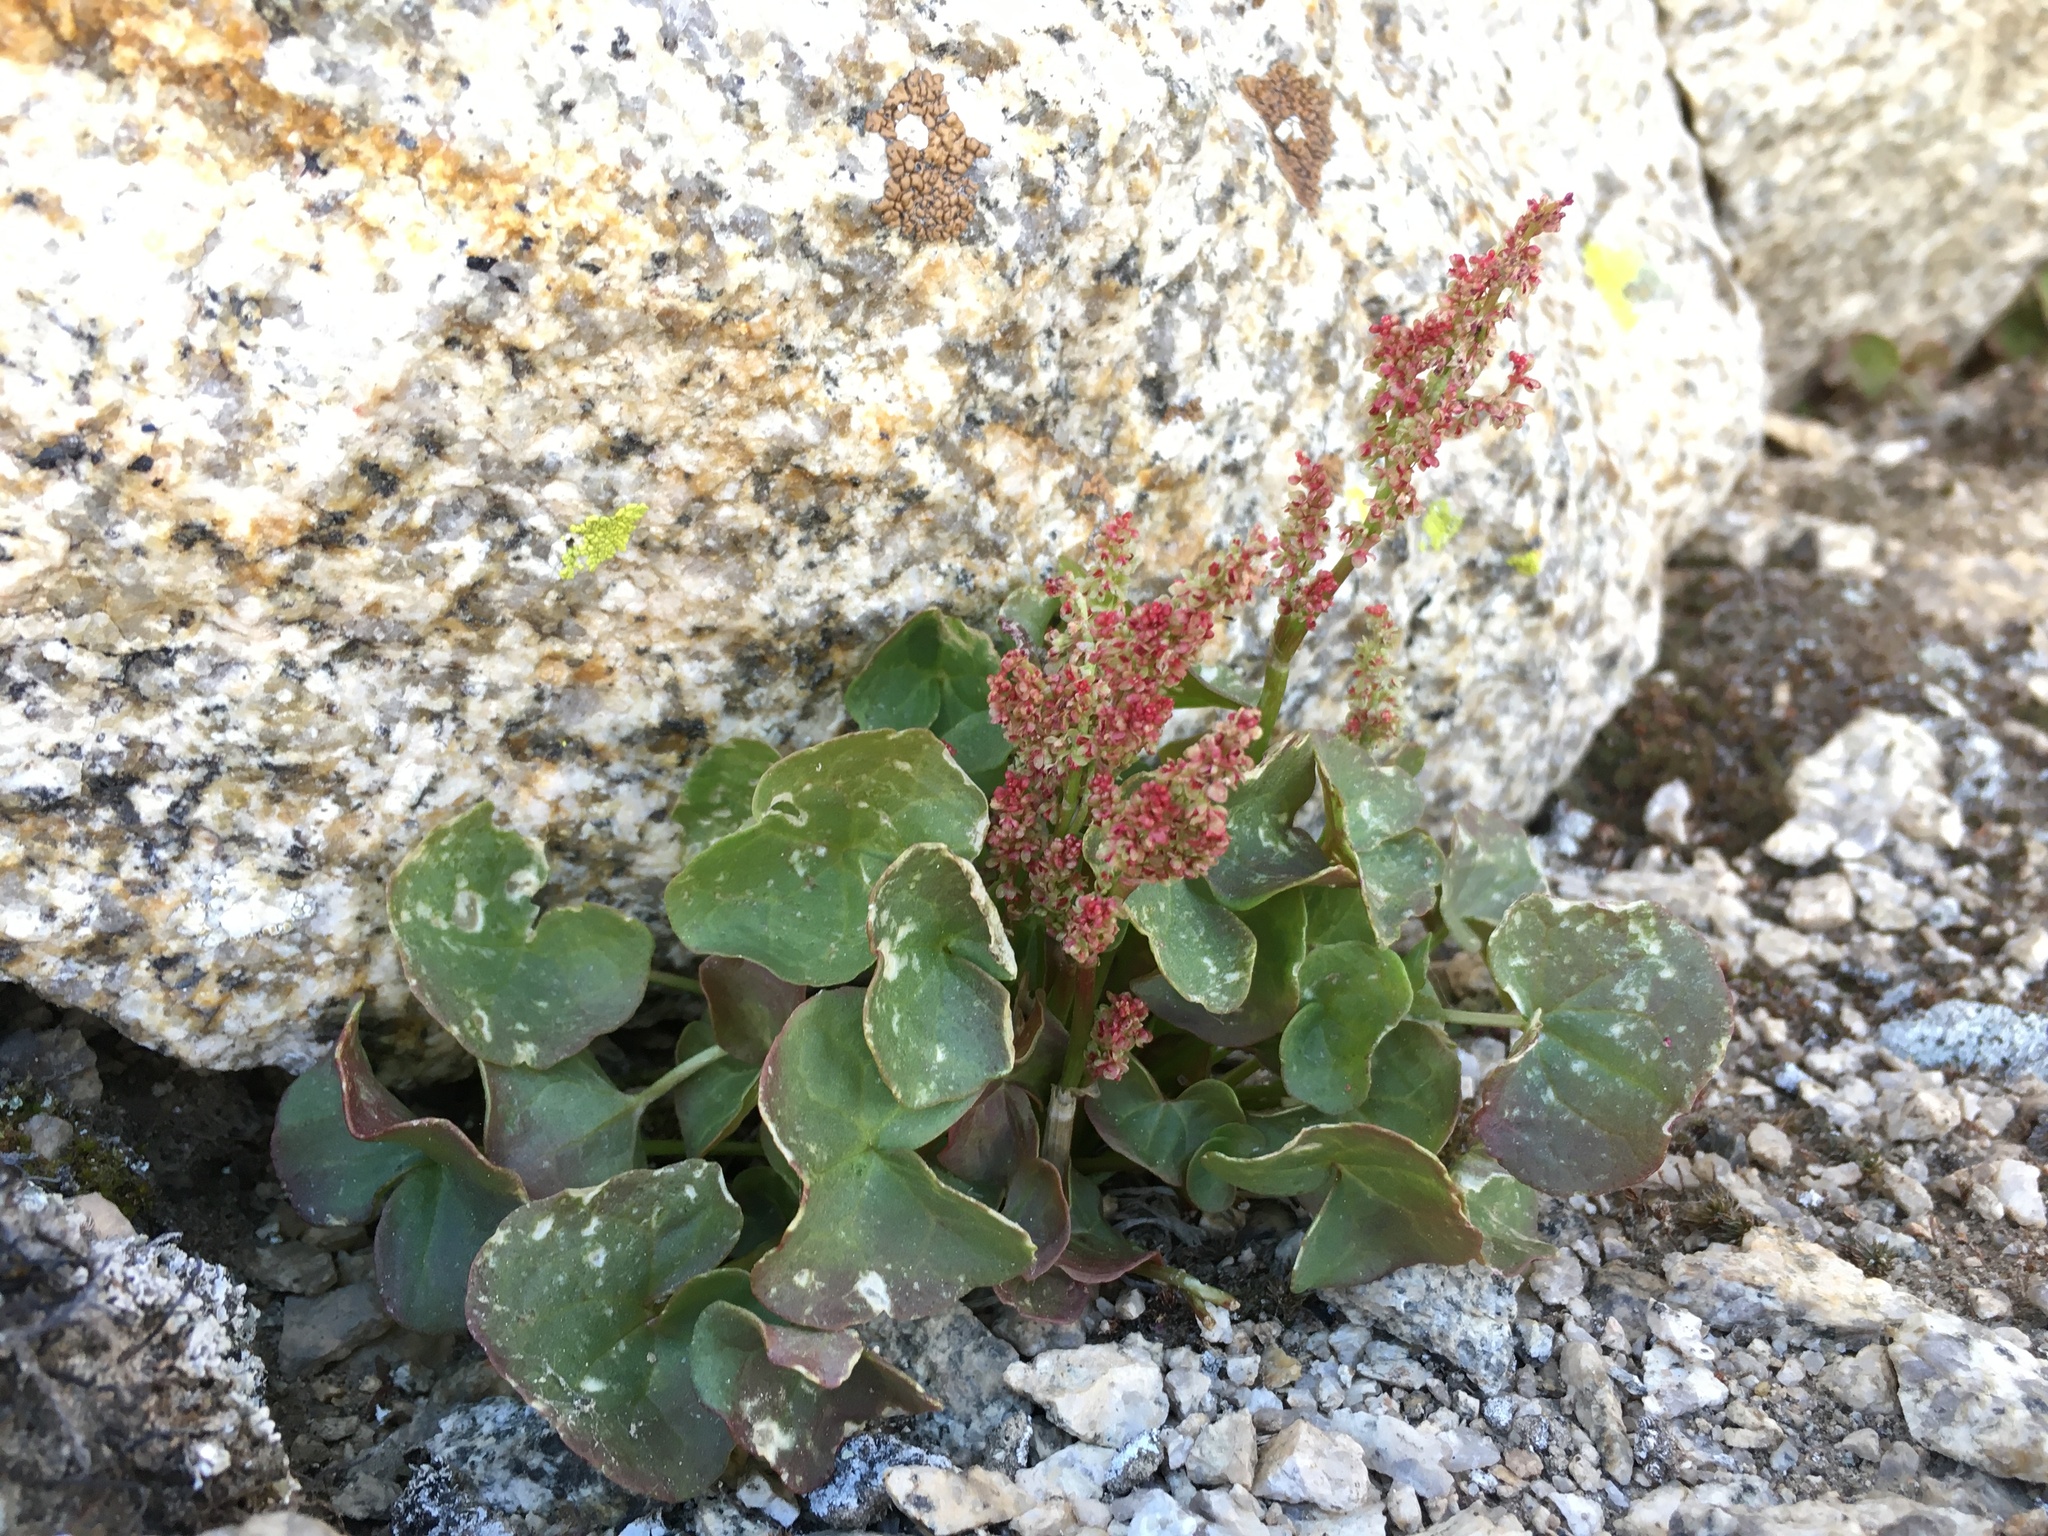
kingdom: Plantae
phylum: Tracheophyta
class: Magnoliopsida
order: Caryophyllales
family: Polygonaceae
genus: Oxyria
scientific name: Oxyria digyna
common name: Alpine mountain-sorrel
